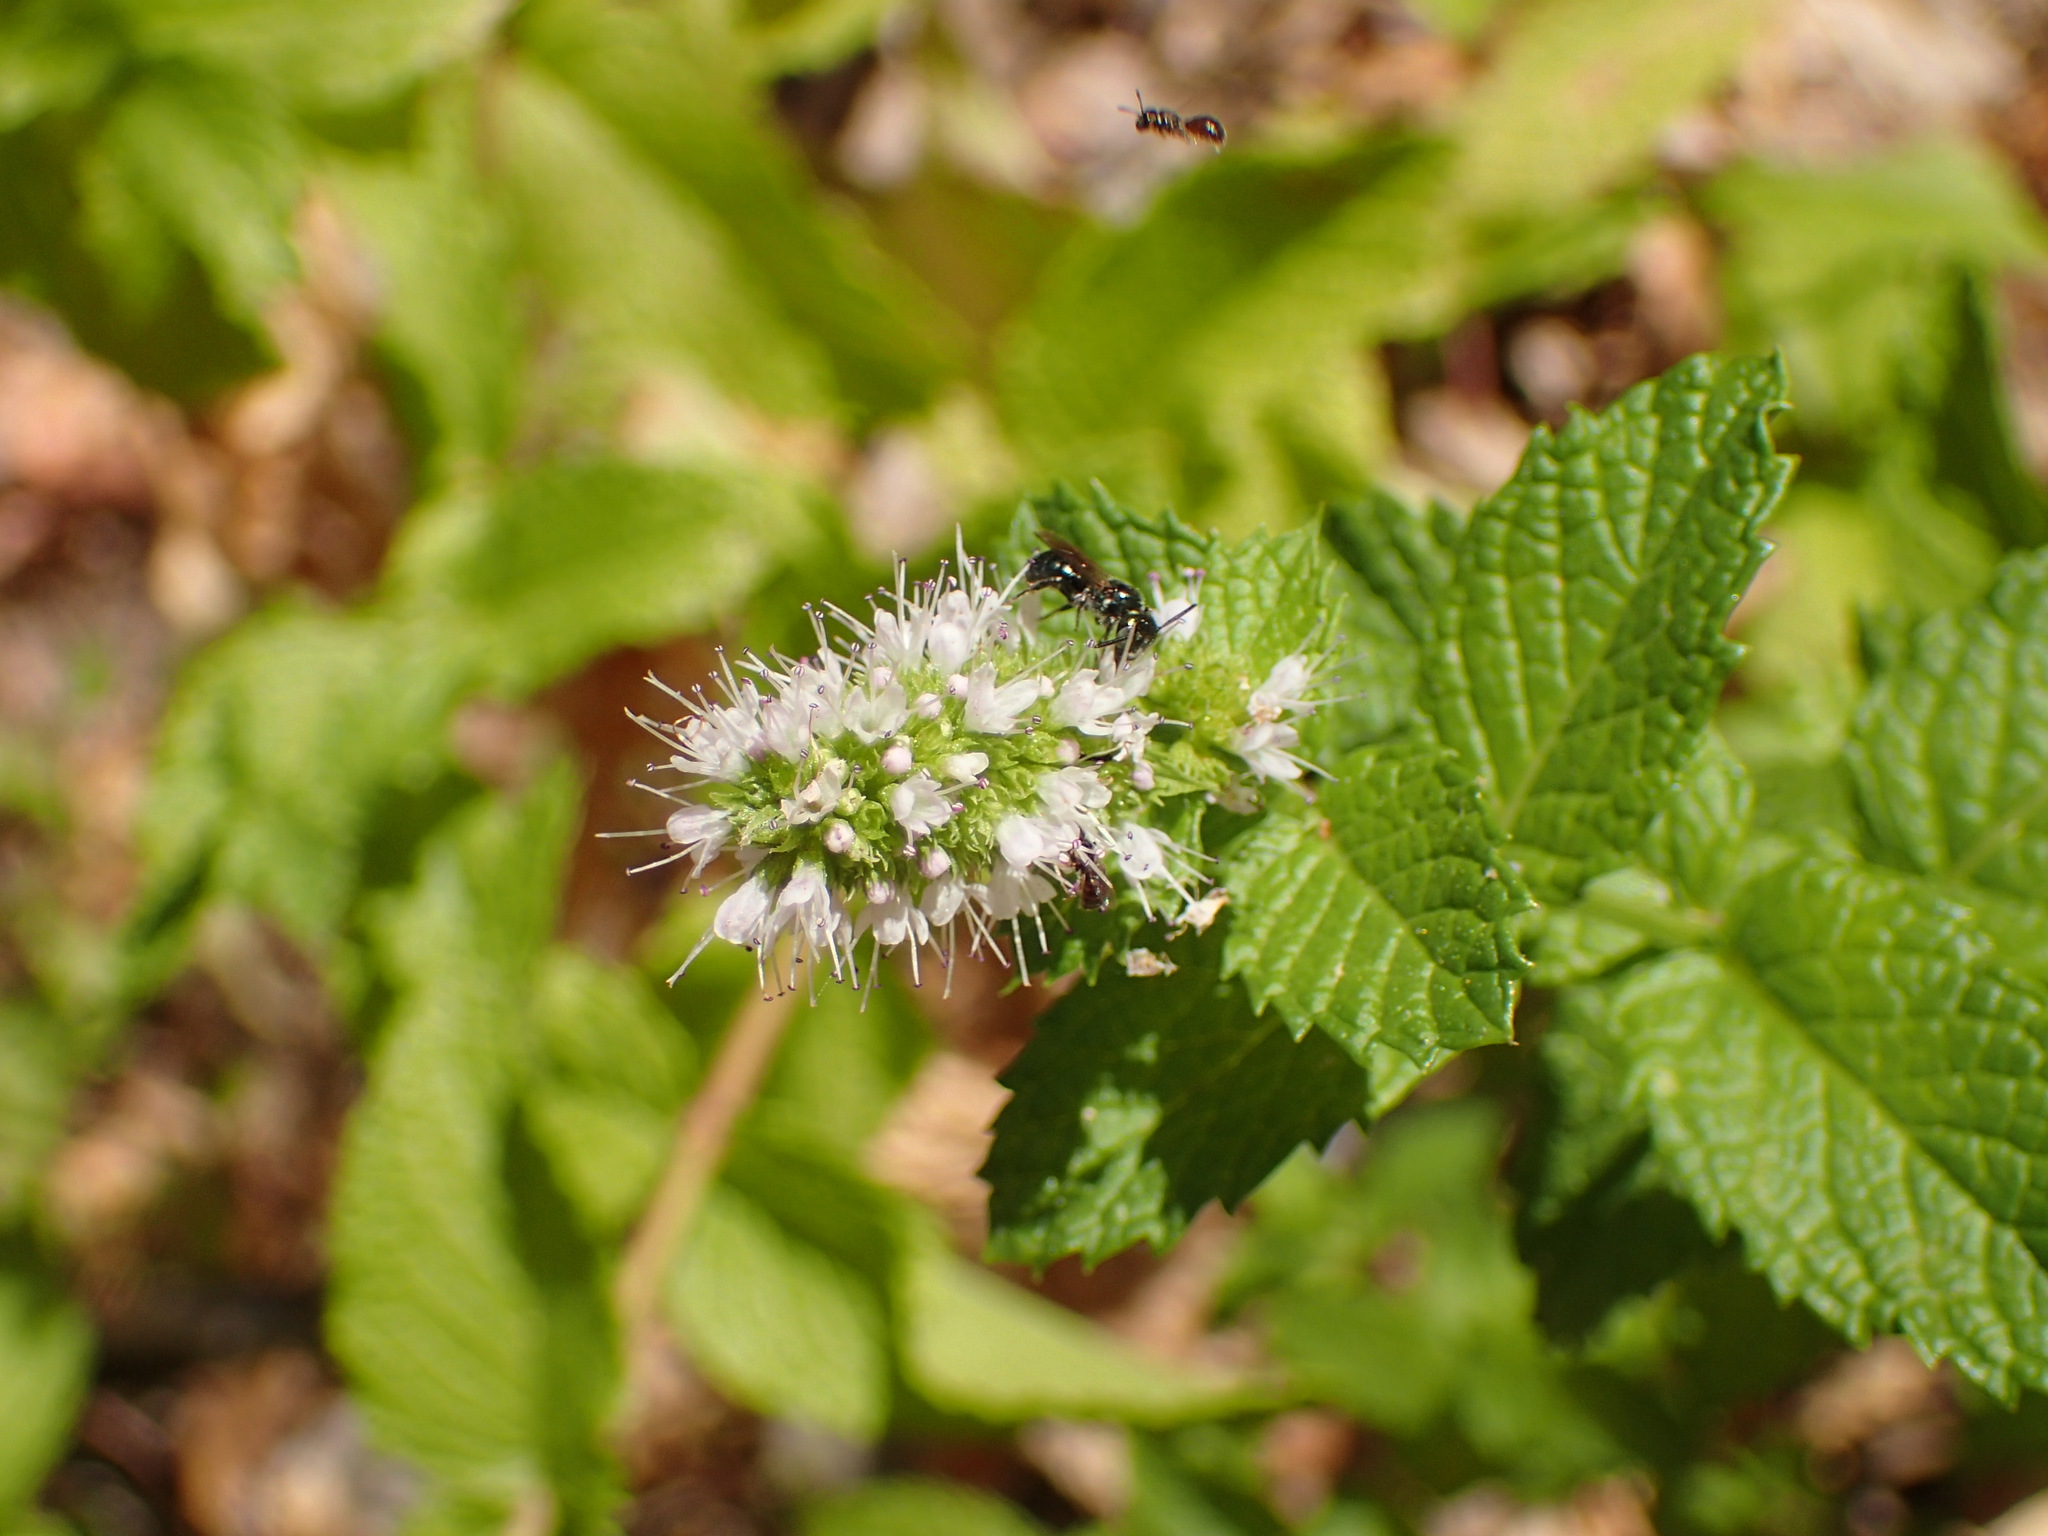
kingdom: Plantae
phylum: Tracheophyta
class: Magnoliopsida
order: Lamiales
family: Lamiaceae
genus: Mentha
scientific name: Mentha spicata
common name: Spearmint
